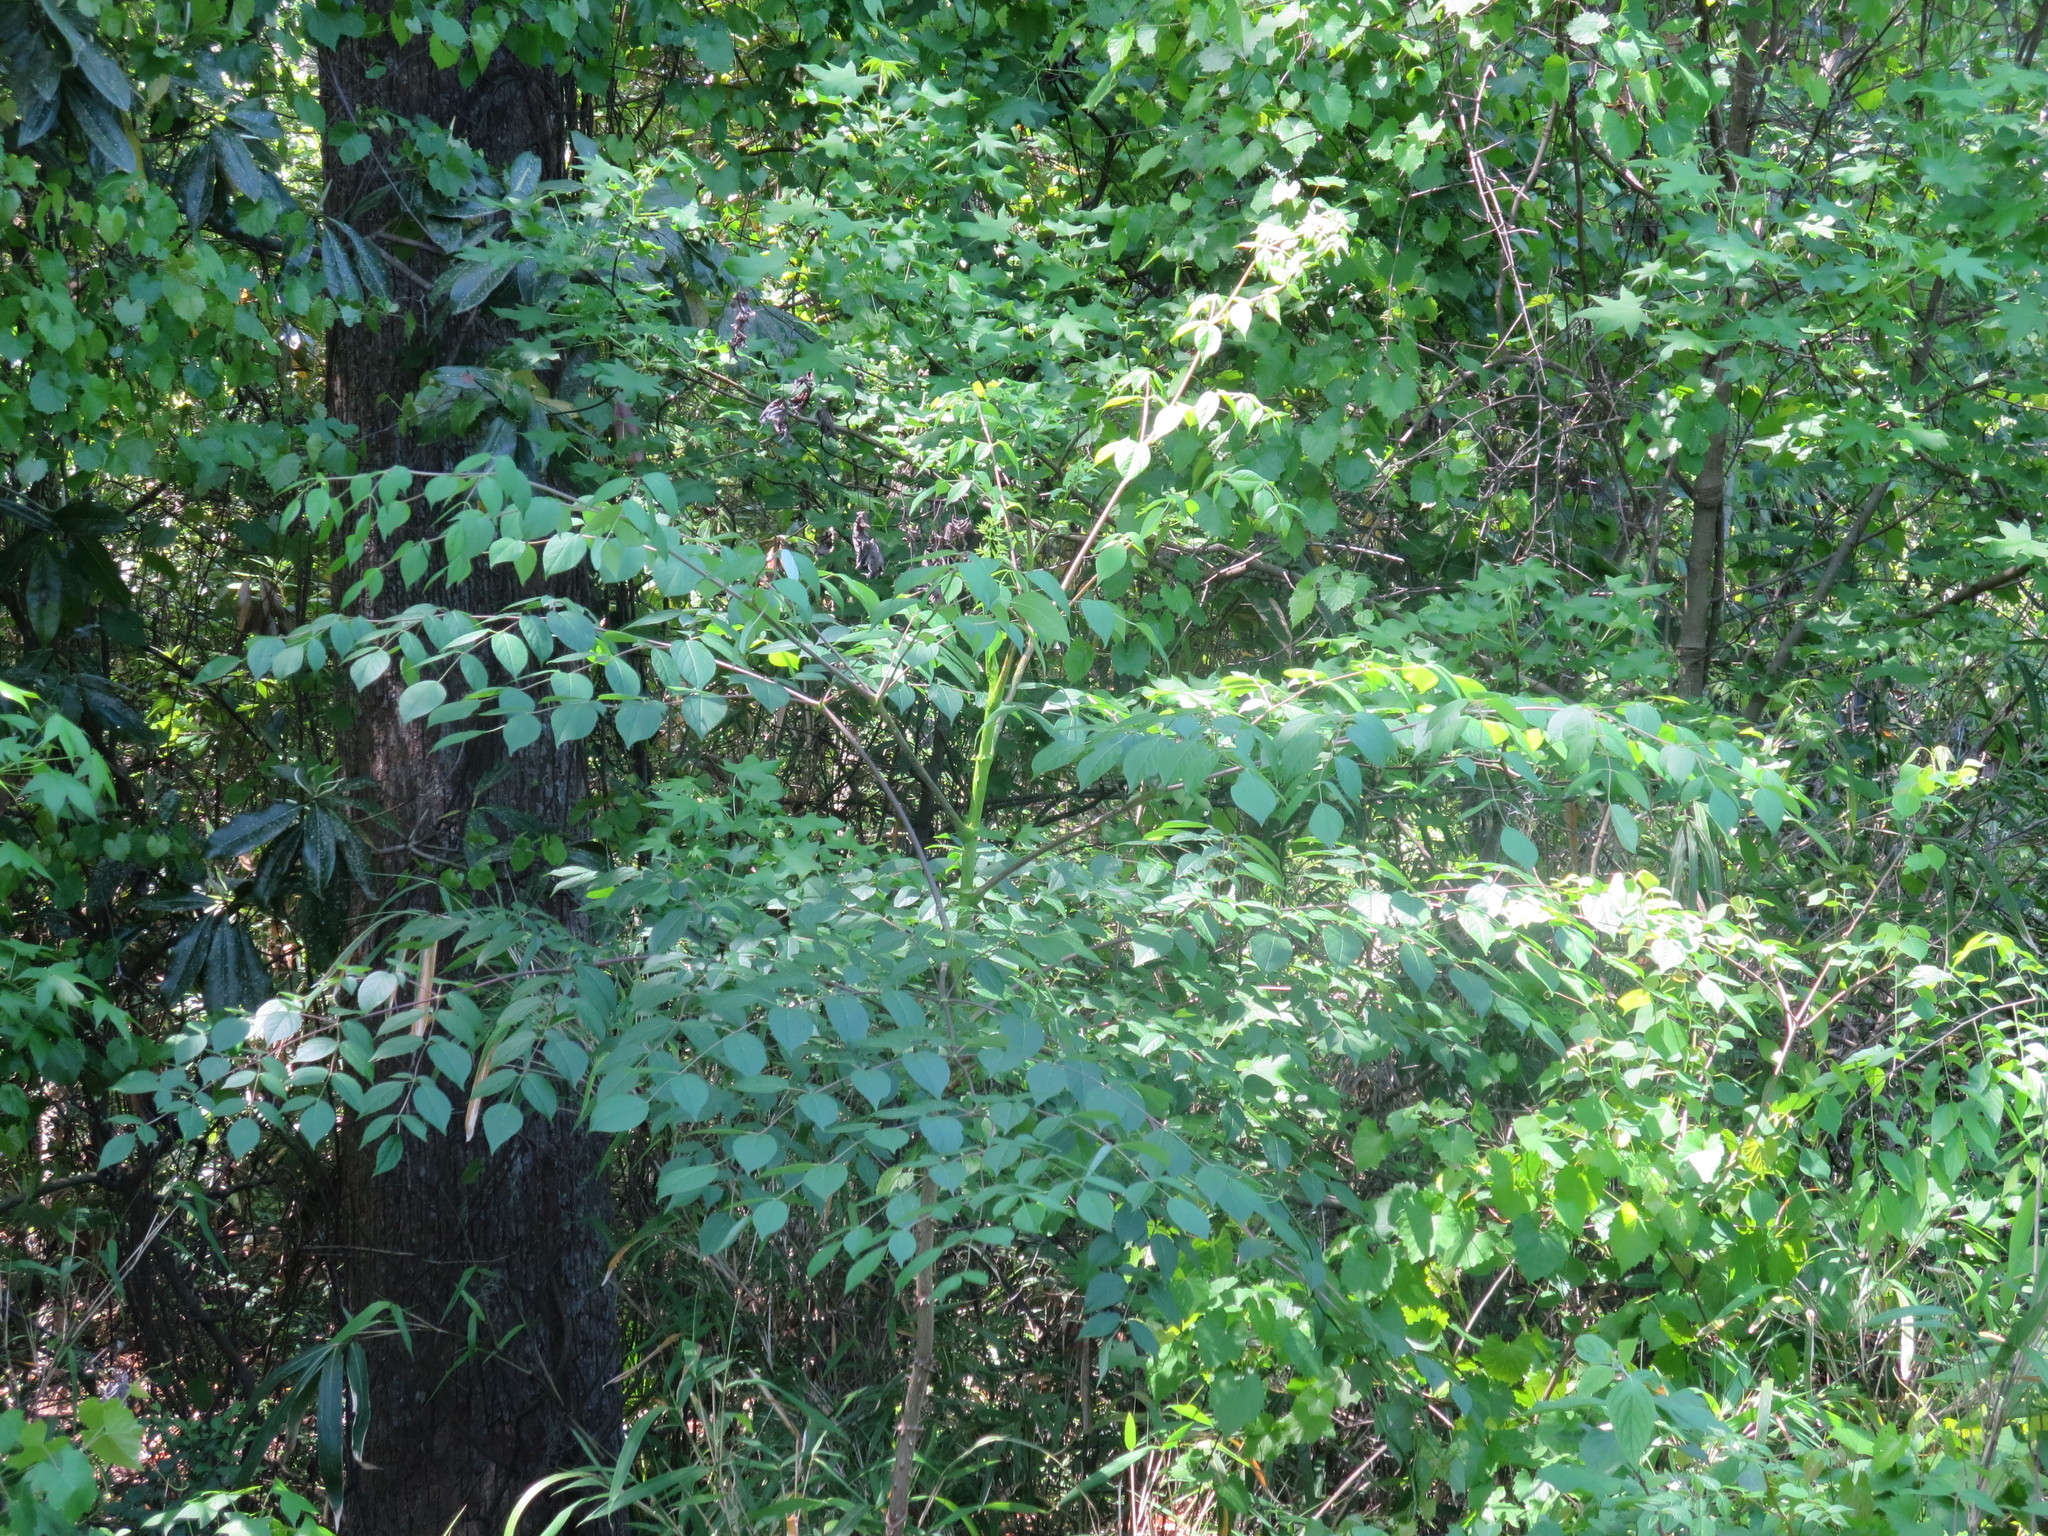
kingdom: Plantae
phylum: Tracheophyta
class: Magnoliopsida
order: Apiales
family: Araliaceae
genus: Aralia
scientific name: Aralia spinosa
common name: Hercules'-club
